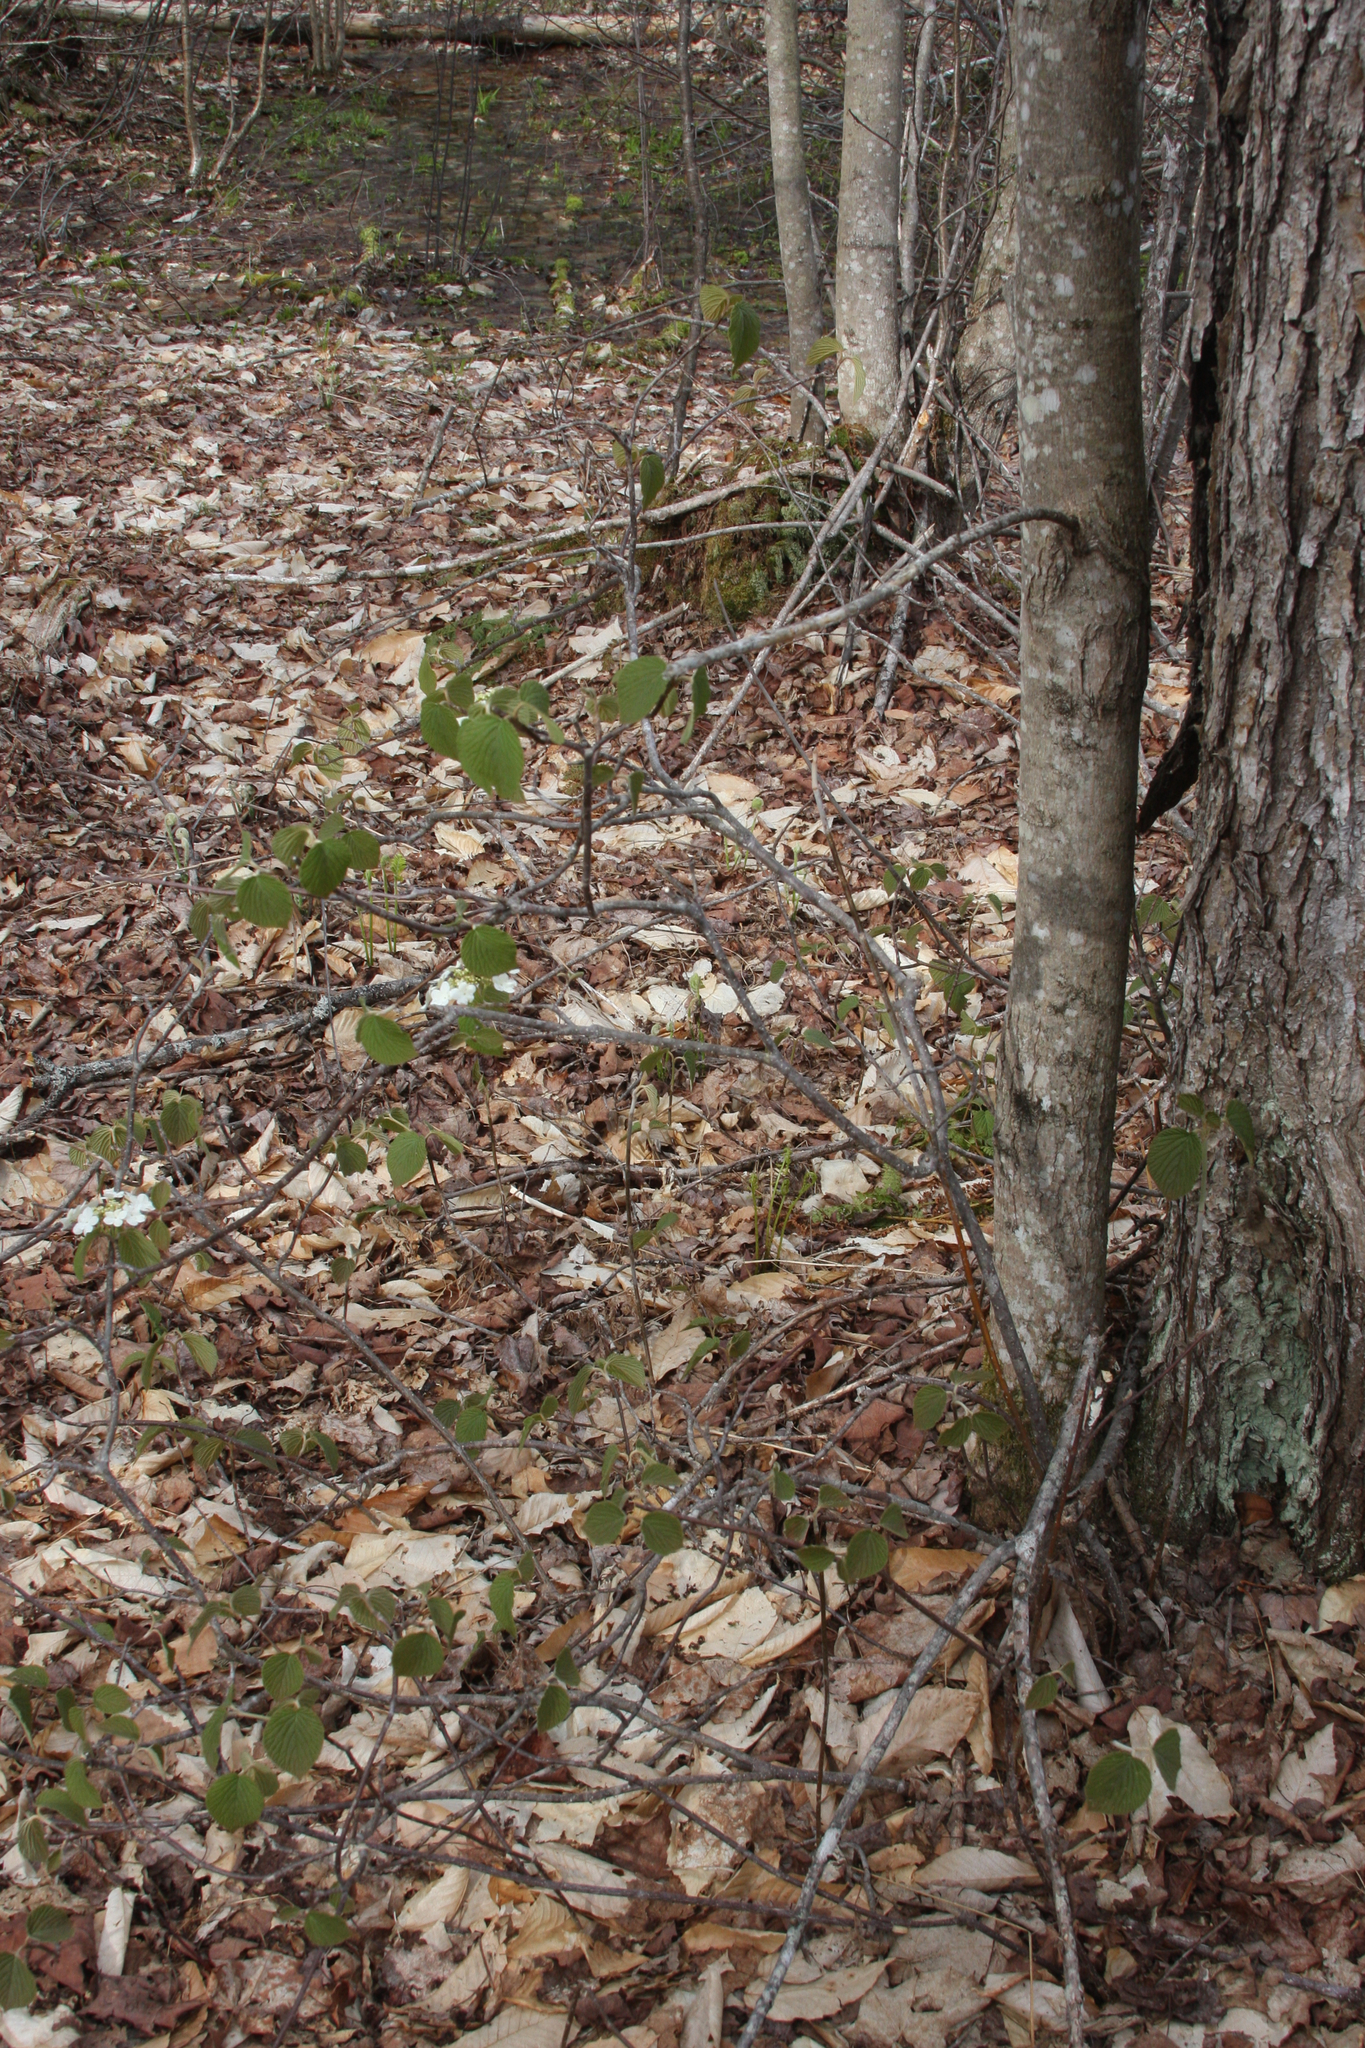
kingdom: Plantae
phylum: Tracheophyta
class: Magnoliopsida
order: Dipsacales
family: Viburnaceae
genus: Viburnum
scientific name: Viburnum lantanoides
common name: Hobblebush
